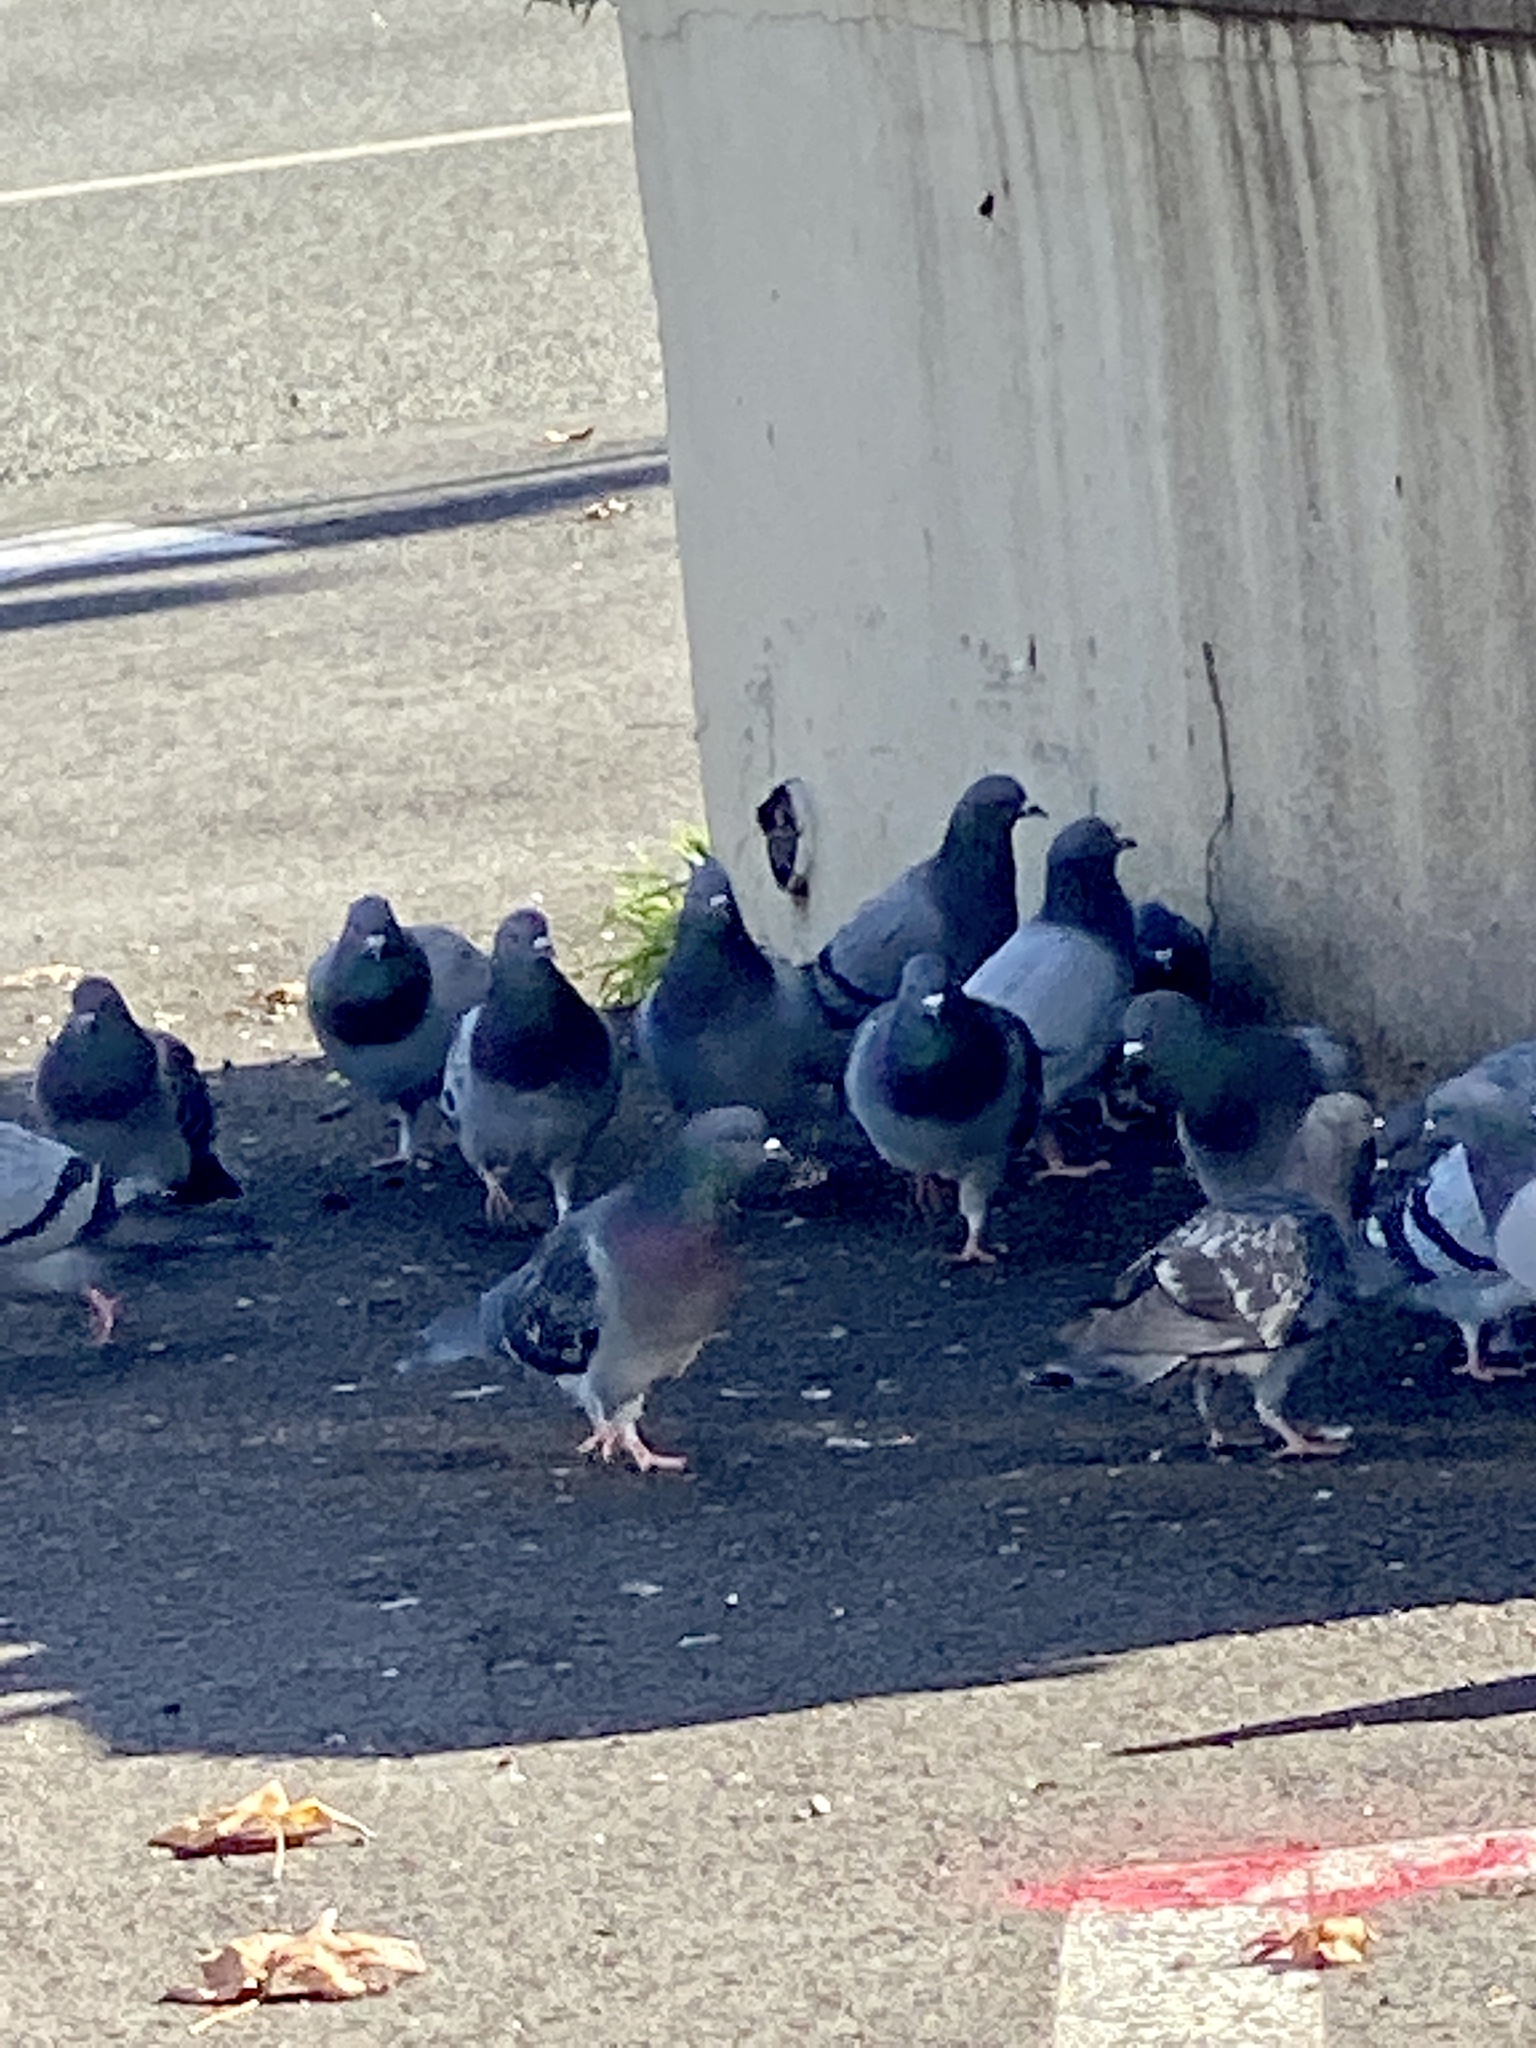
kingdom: Animalia
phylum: Chordata
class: Aves
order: Columbiformes
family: Columbidae
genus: Columba
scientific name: Columba livia
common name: Rock pigeon
